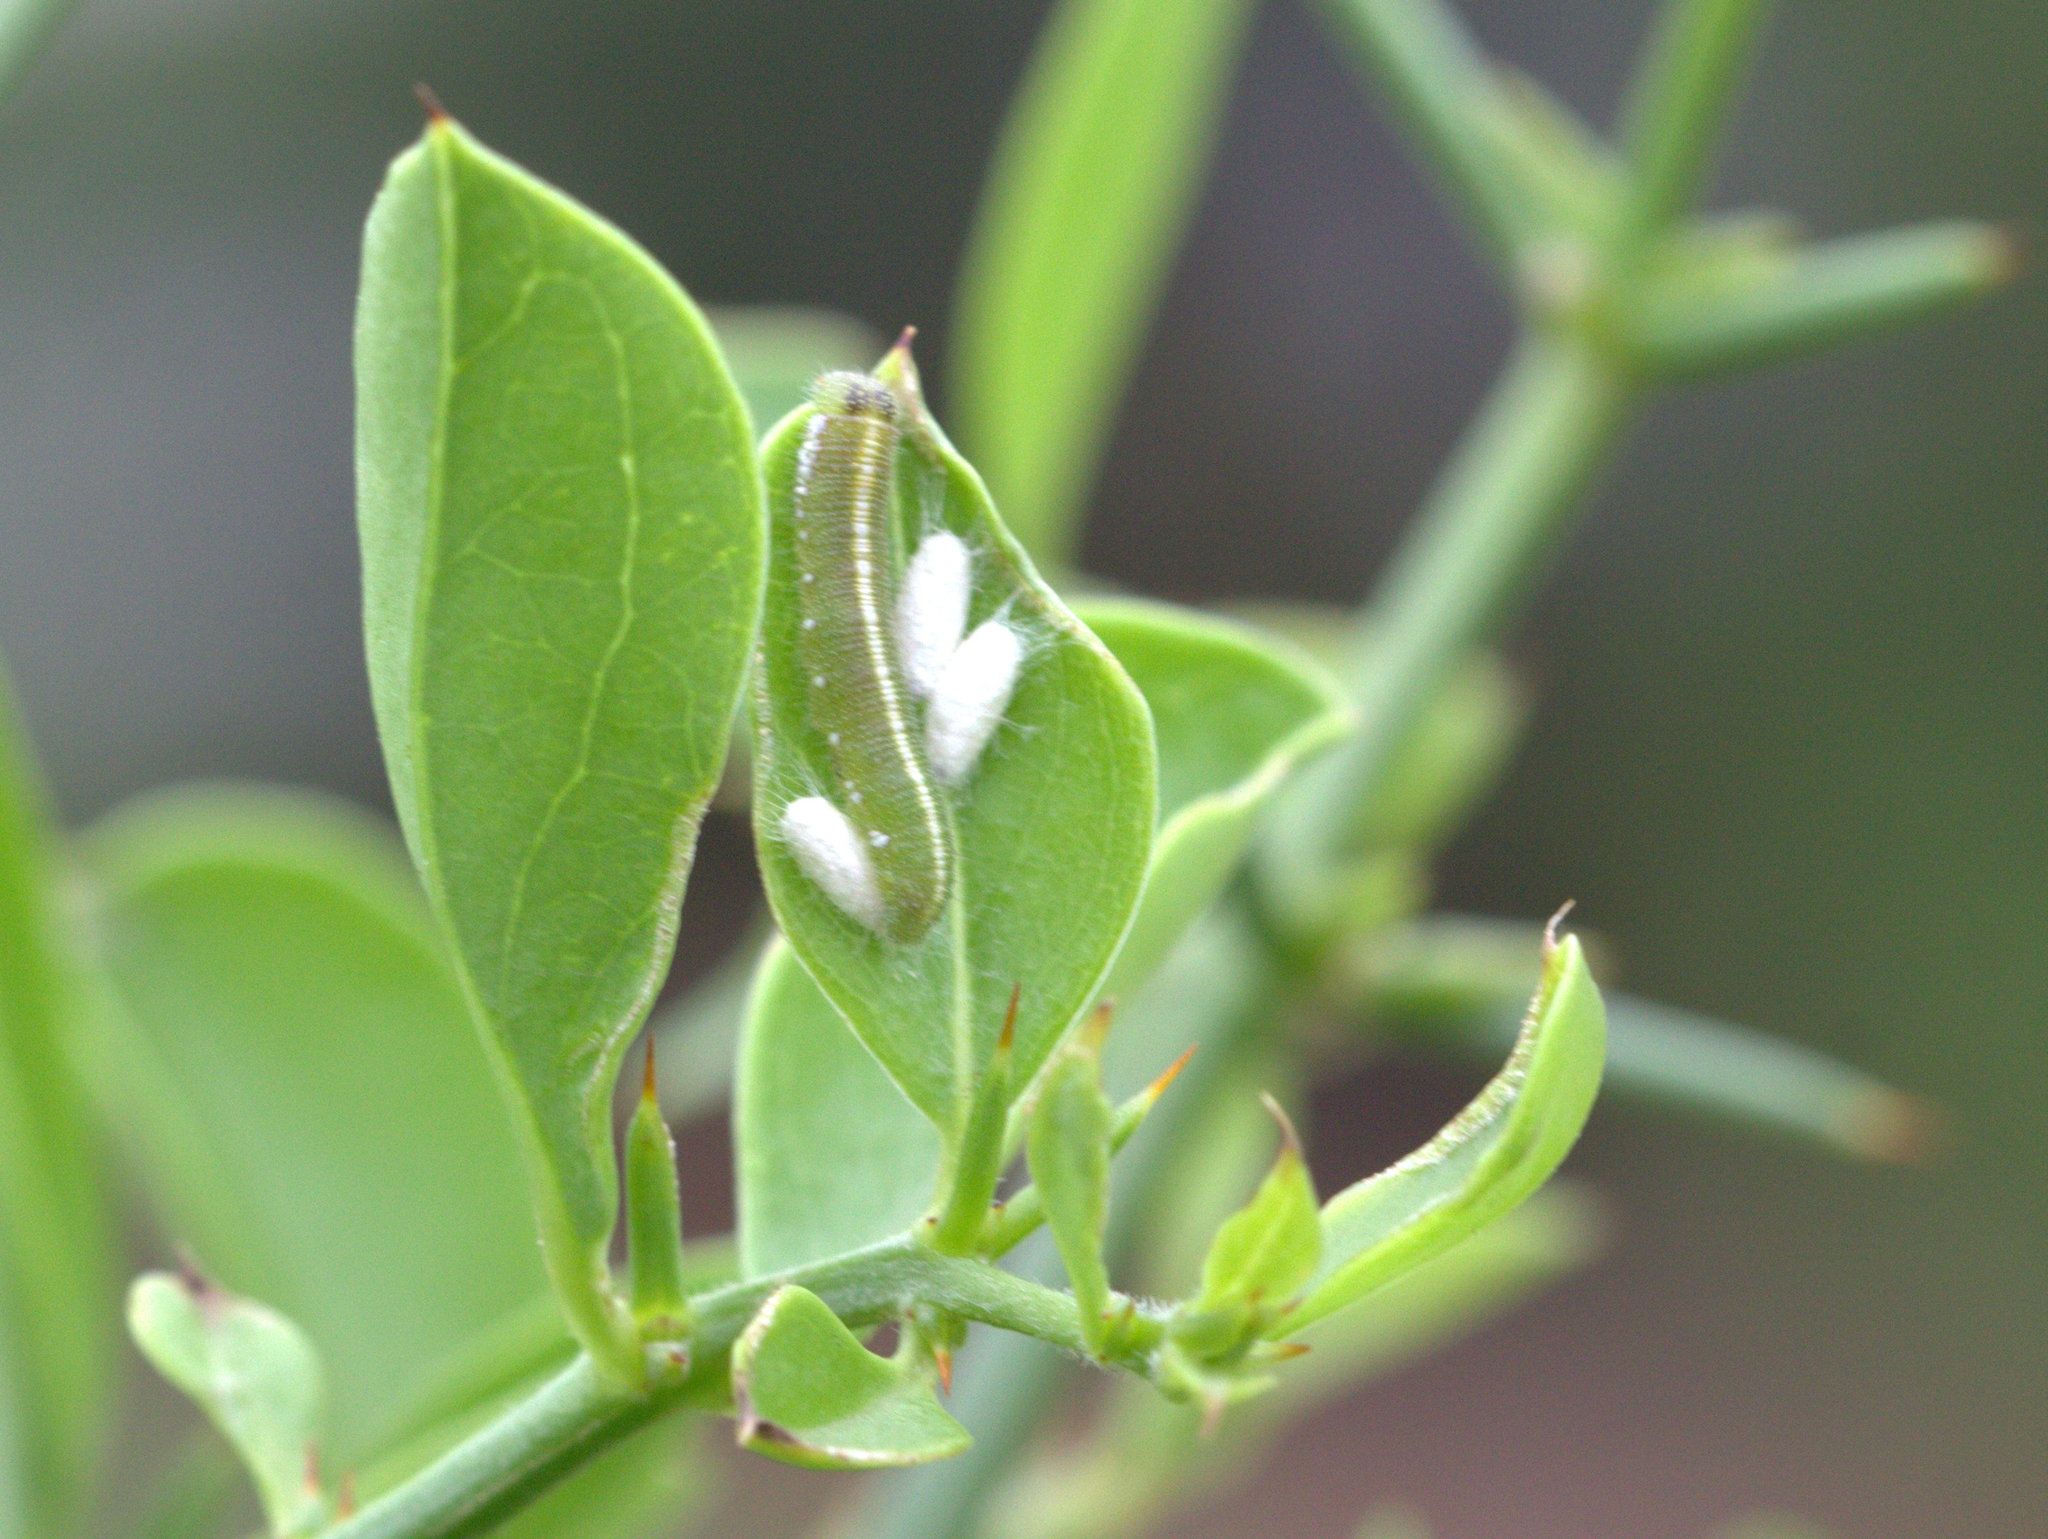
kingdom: Animalia
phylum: Arthropoda
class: Insecta
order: Lepidoptera
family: Pieridae
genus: Colotis
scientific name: Colotis amata
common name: Small salmon arab
